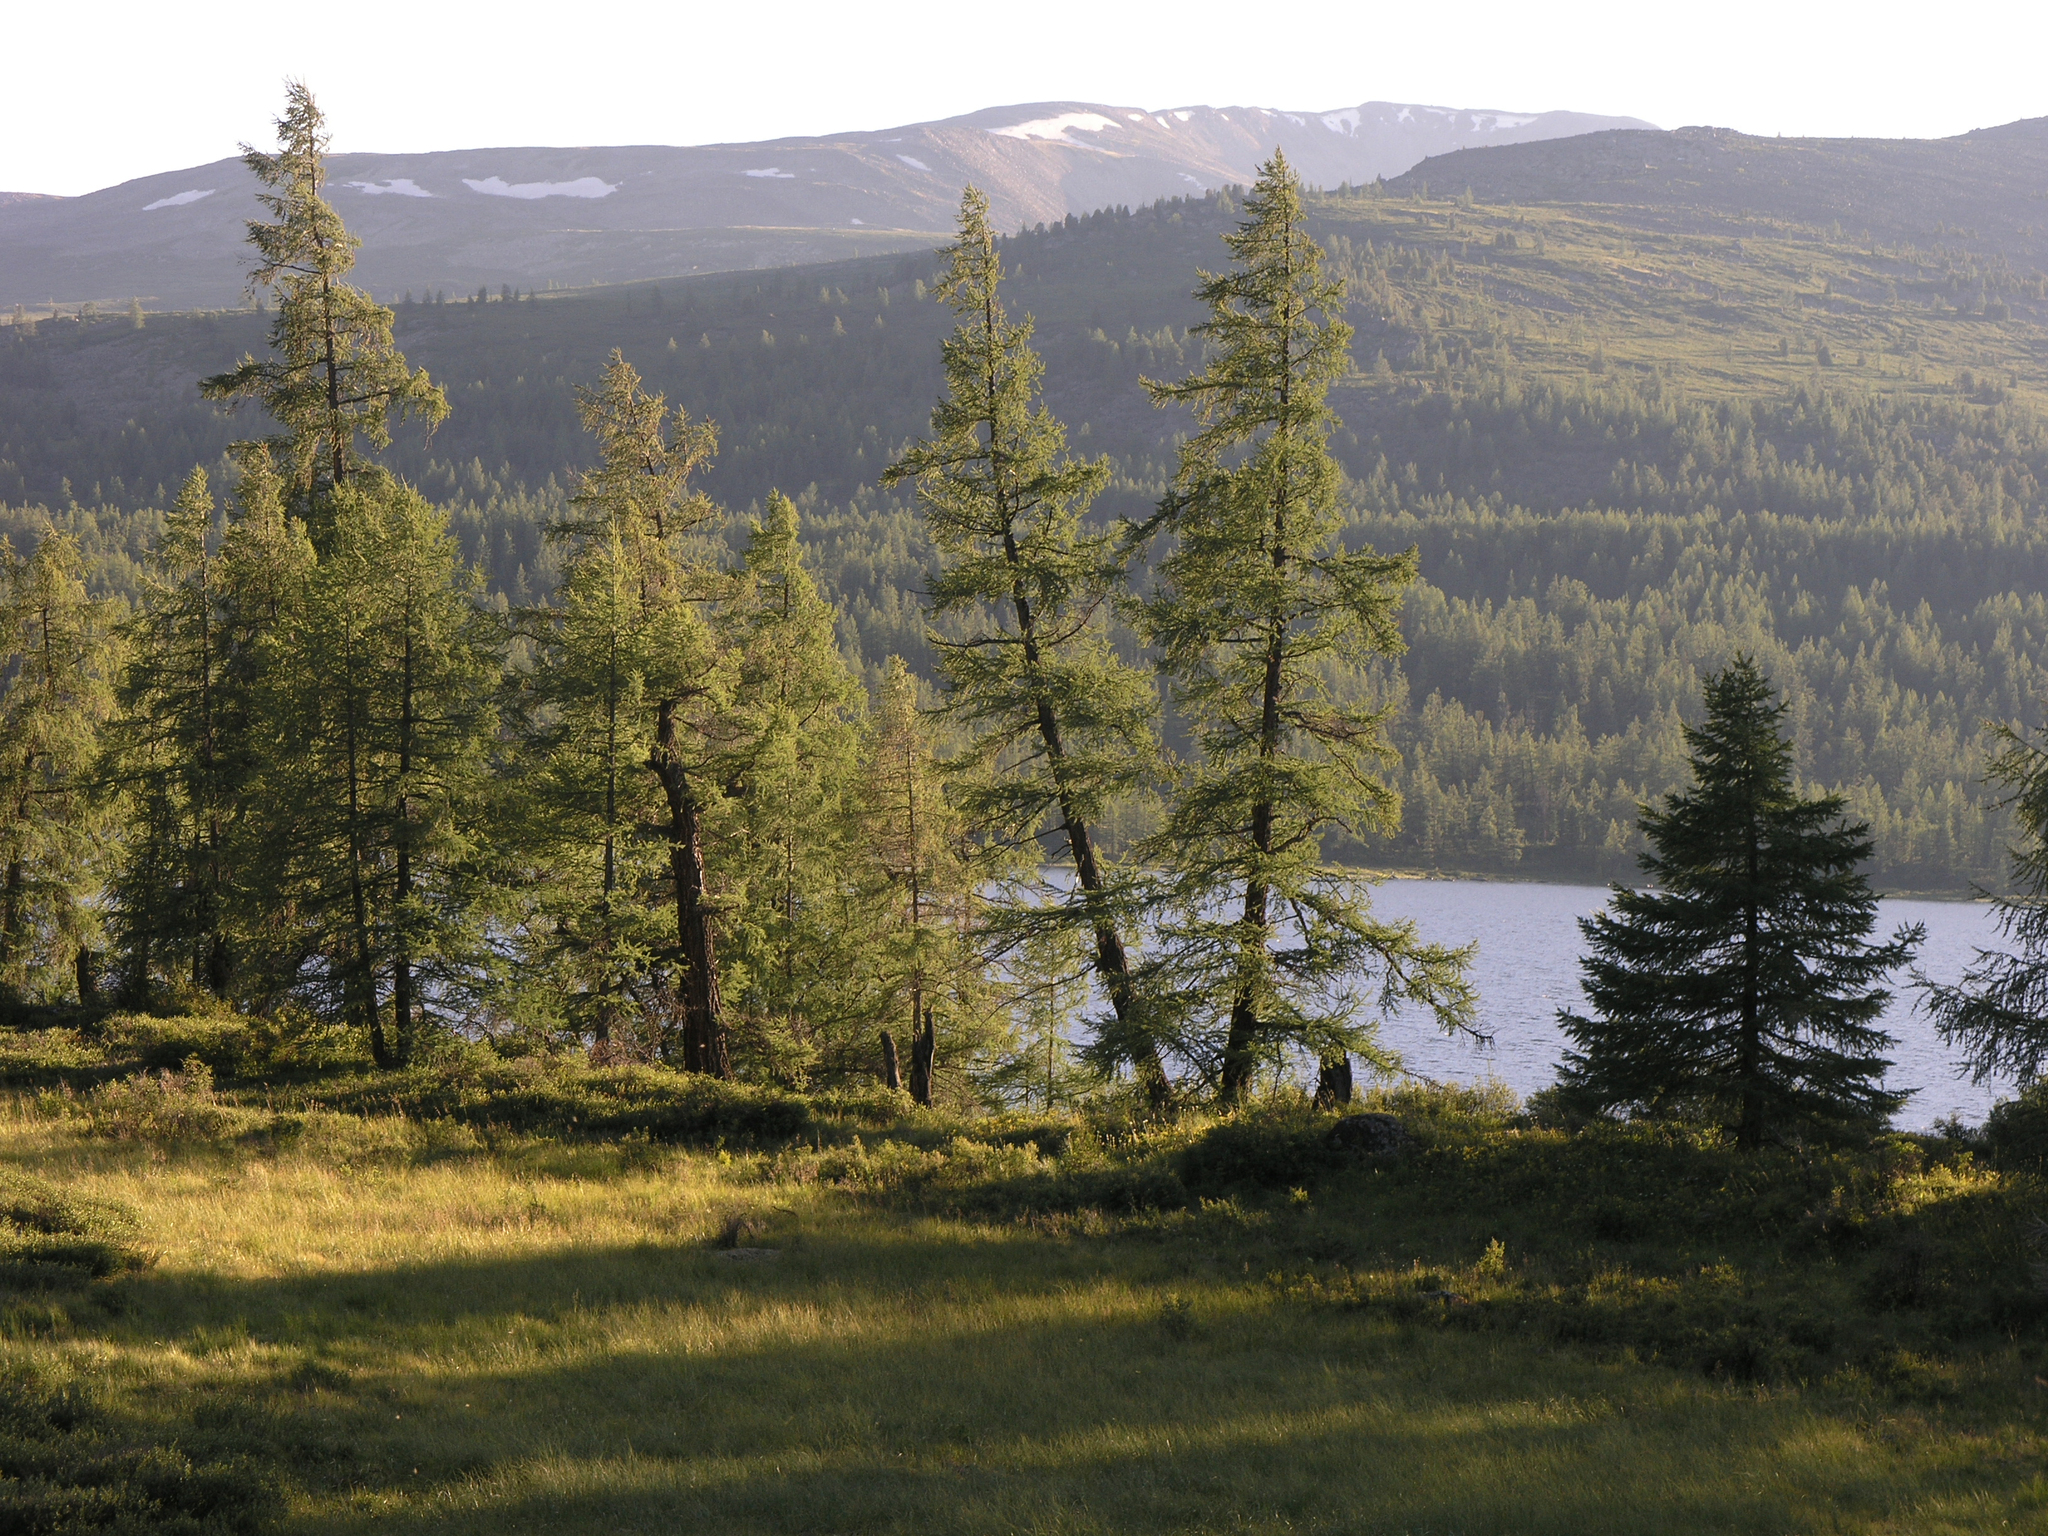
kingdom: Plantae
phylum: Tracheophyta
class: Pinopsida
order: Pinales
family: Pinaceae
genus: Picea
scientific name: Picea obovata
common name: Siberian spruce
